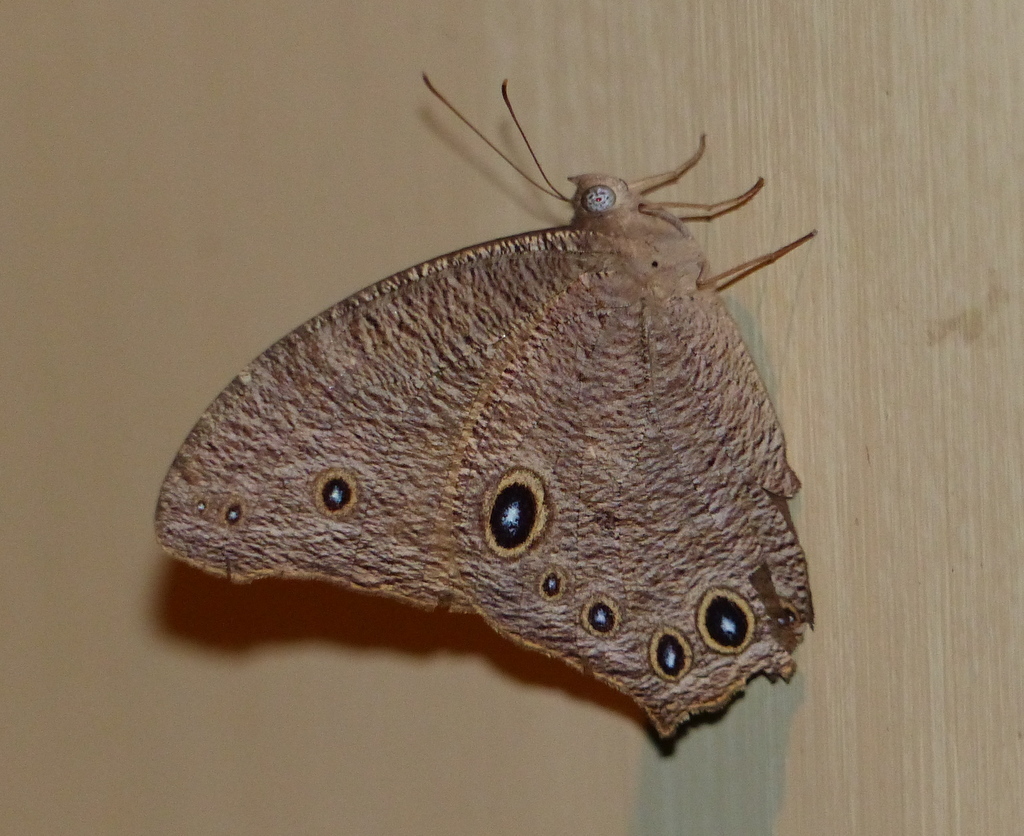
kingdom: Animalia
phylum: Arthropoda
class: Insecta
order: Lepidoptera
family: Nymphalidae
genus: Melanitis
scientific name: Melanitis leda
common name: Twilight brown
